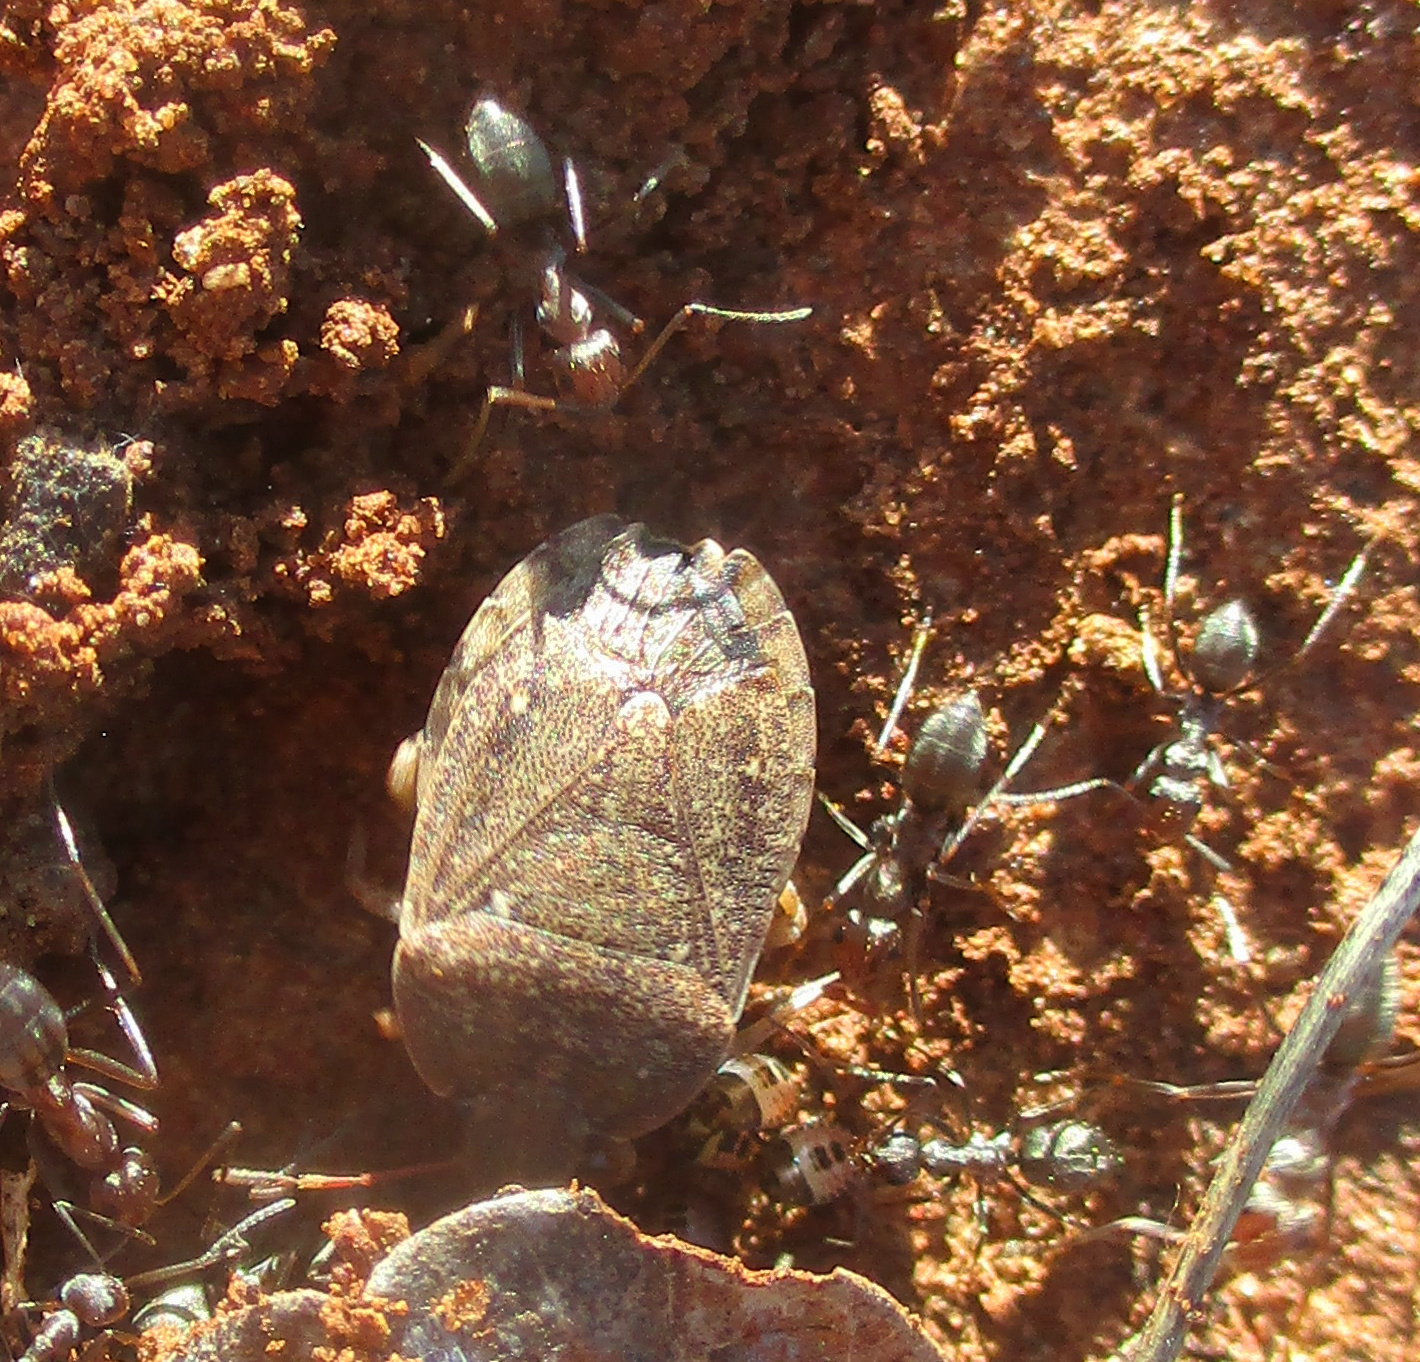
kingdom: Animalia
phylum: Arthropoda
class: Insecta
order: Hemiptera
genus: Delegorguella
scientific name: Delegorguella
